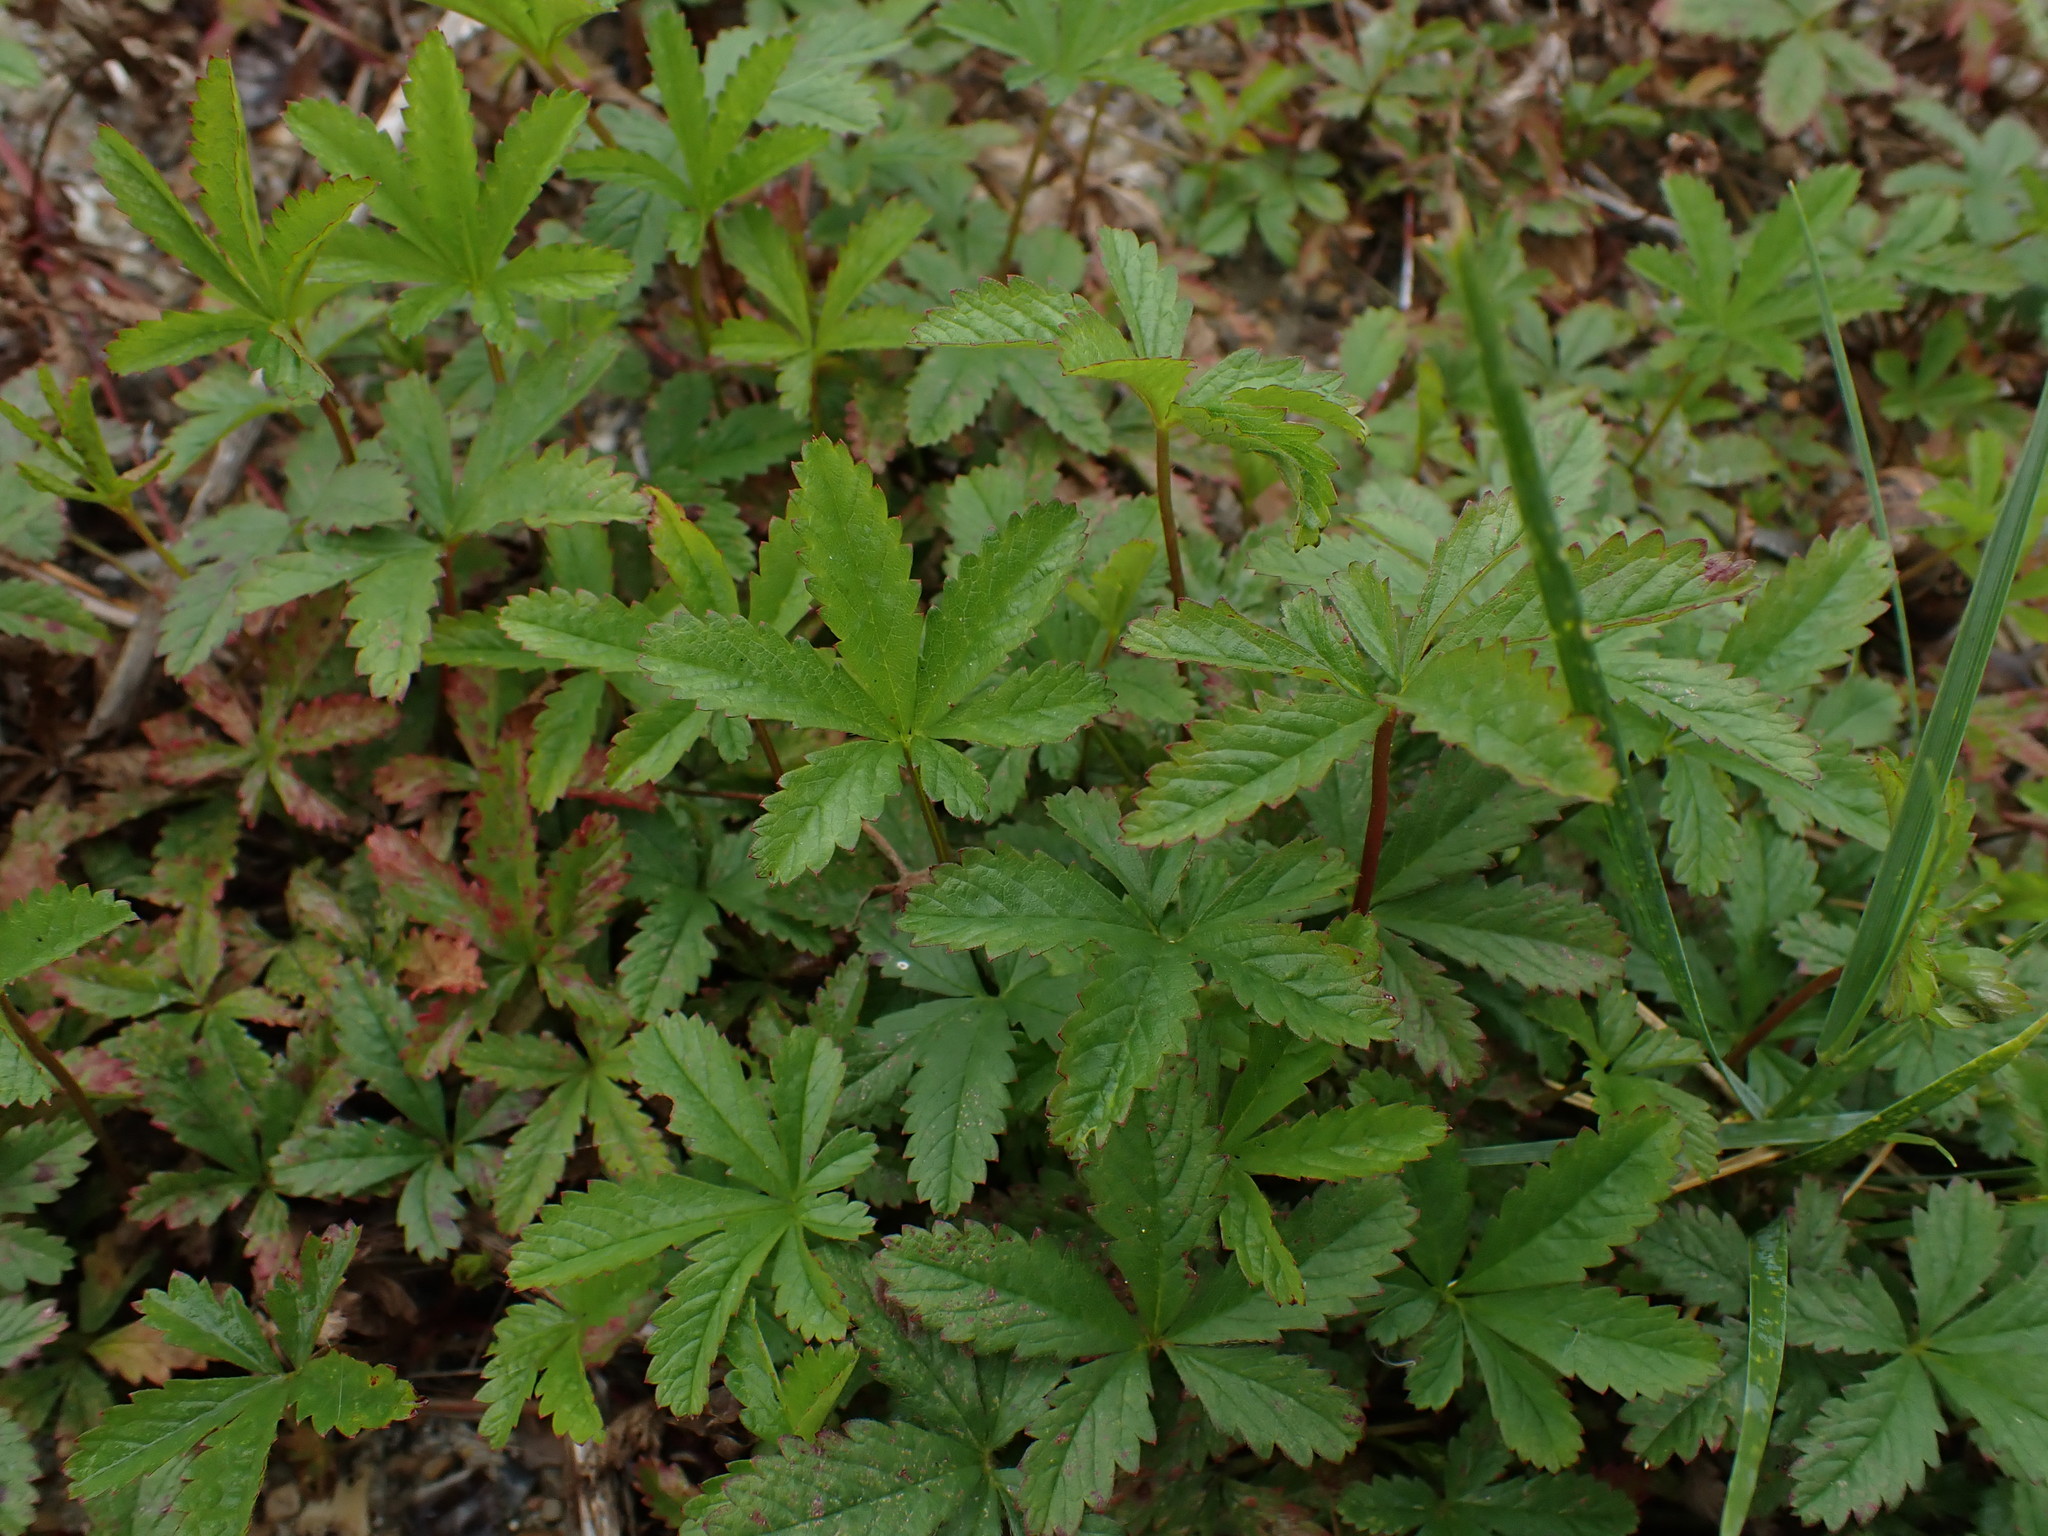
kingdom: Plantae
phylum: Tracheophyta
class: Magnoliopsida
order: Rosales
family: Rosaceae
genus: Potentilla
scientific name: Potentilla reptans
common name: Creeping cinquefoil
